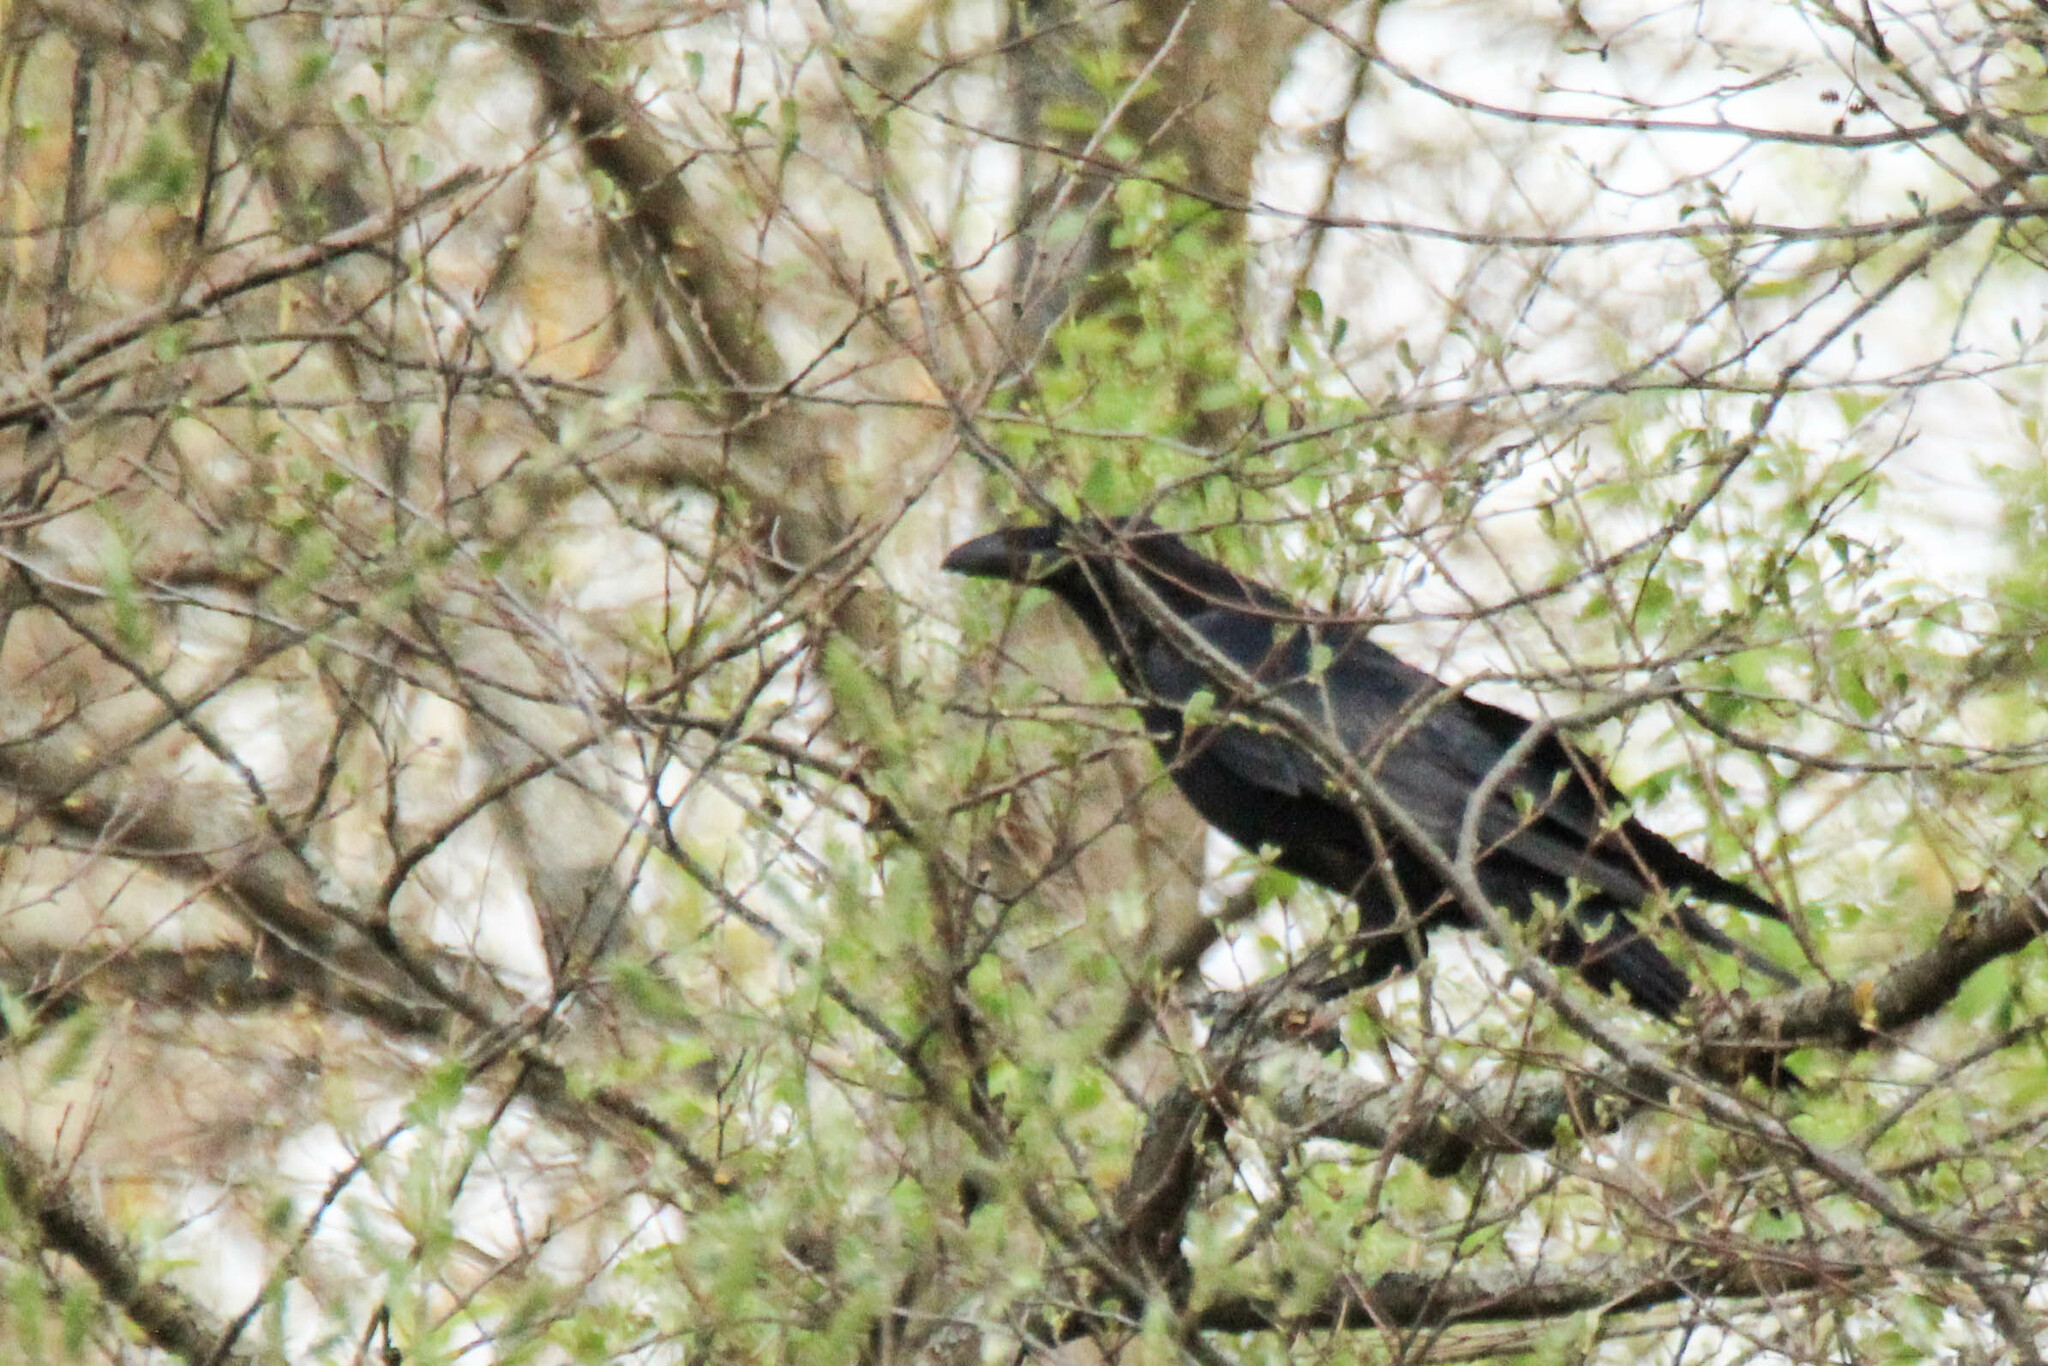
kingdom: Animalia
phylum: Chordata
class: Aves
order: Passeriformes
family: Corvidae
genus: Corvus
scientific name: Corvus corax
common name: Common raven
